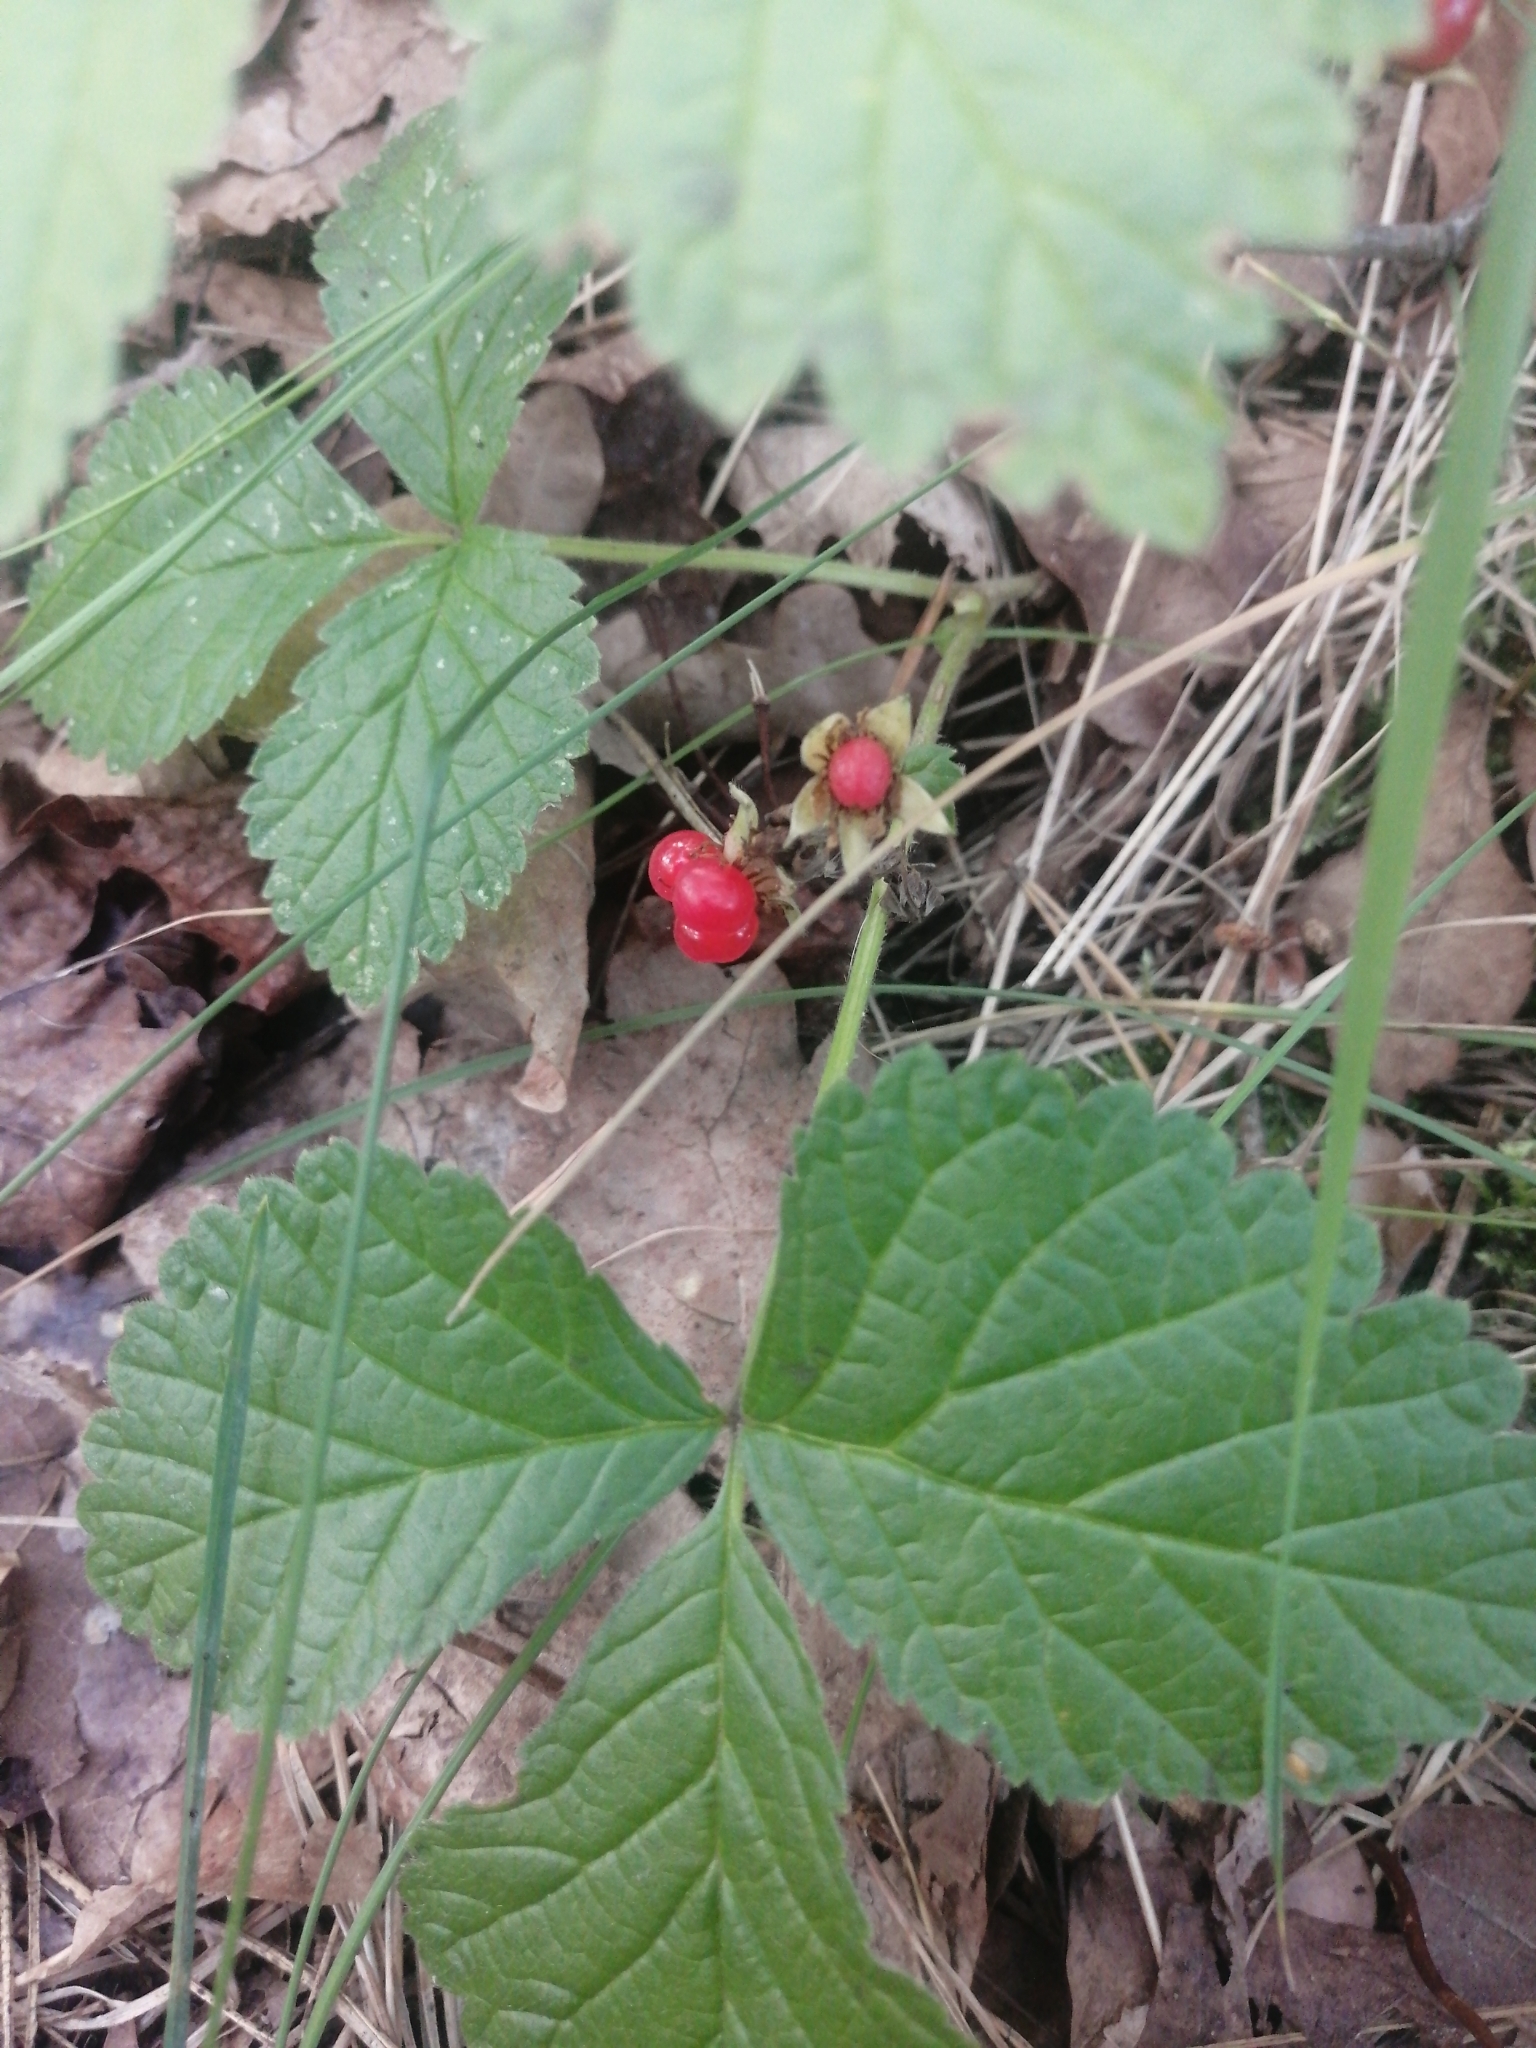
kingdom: Plantae
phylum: Tracheophyta
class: Magnoliopsida
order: Rosales
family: Rosaceae
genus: Rubus
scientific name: Rubus saxatilis
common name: Stone bramble
